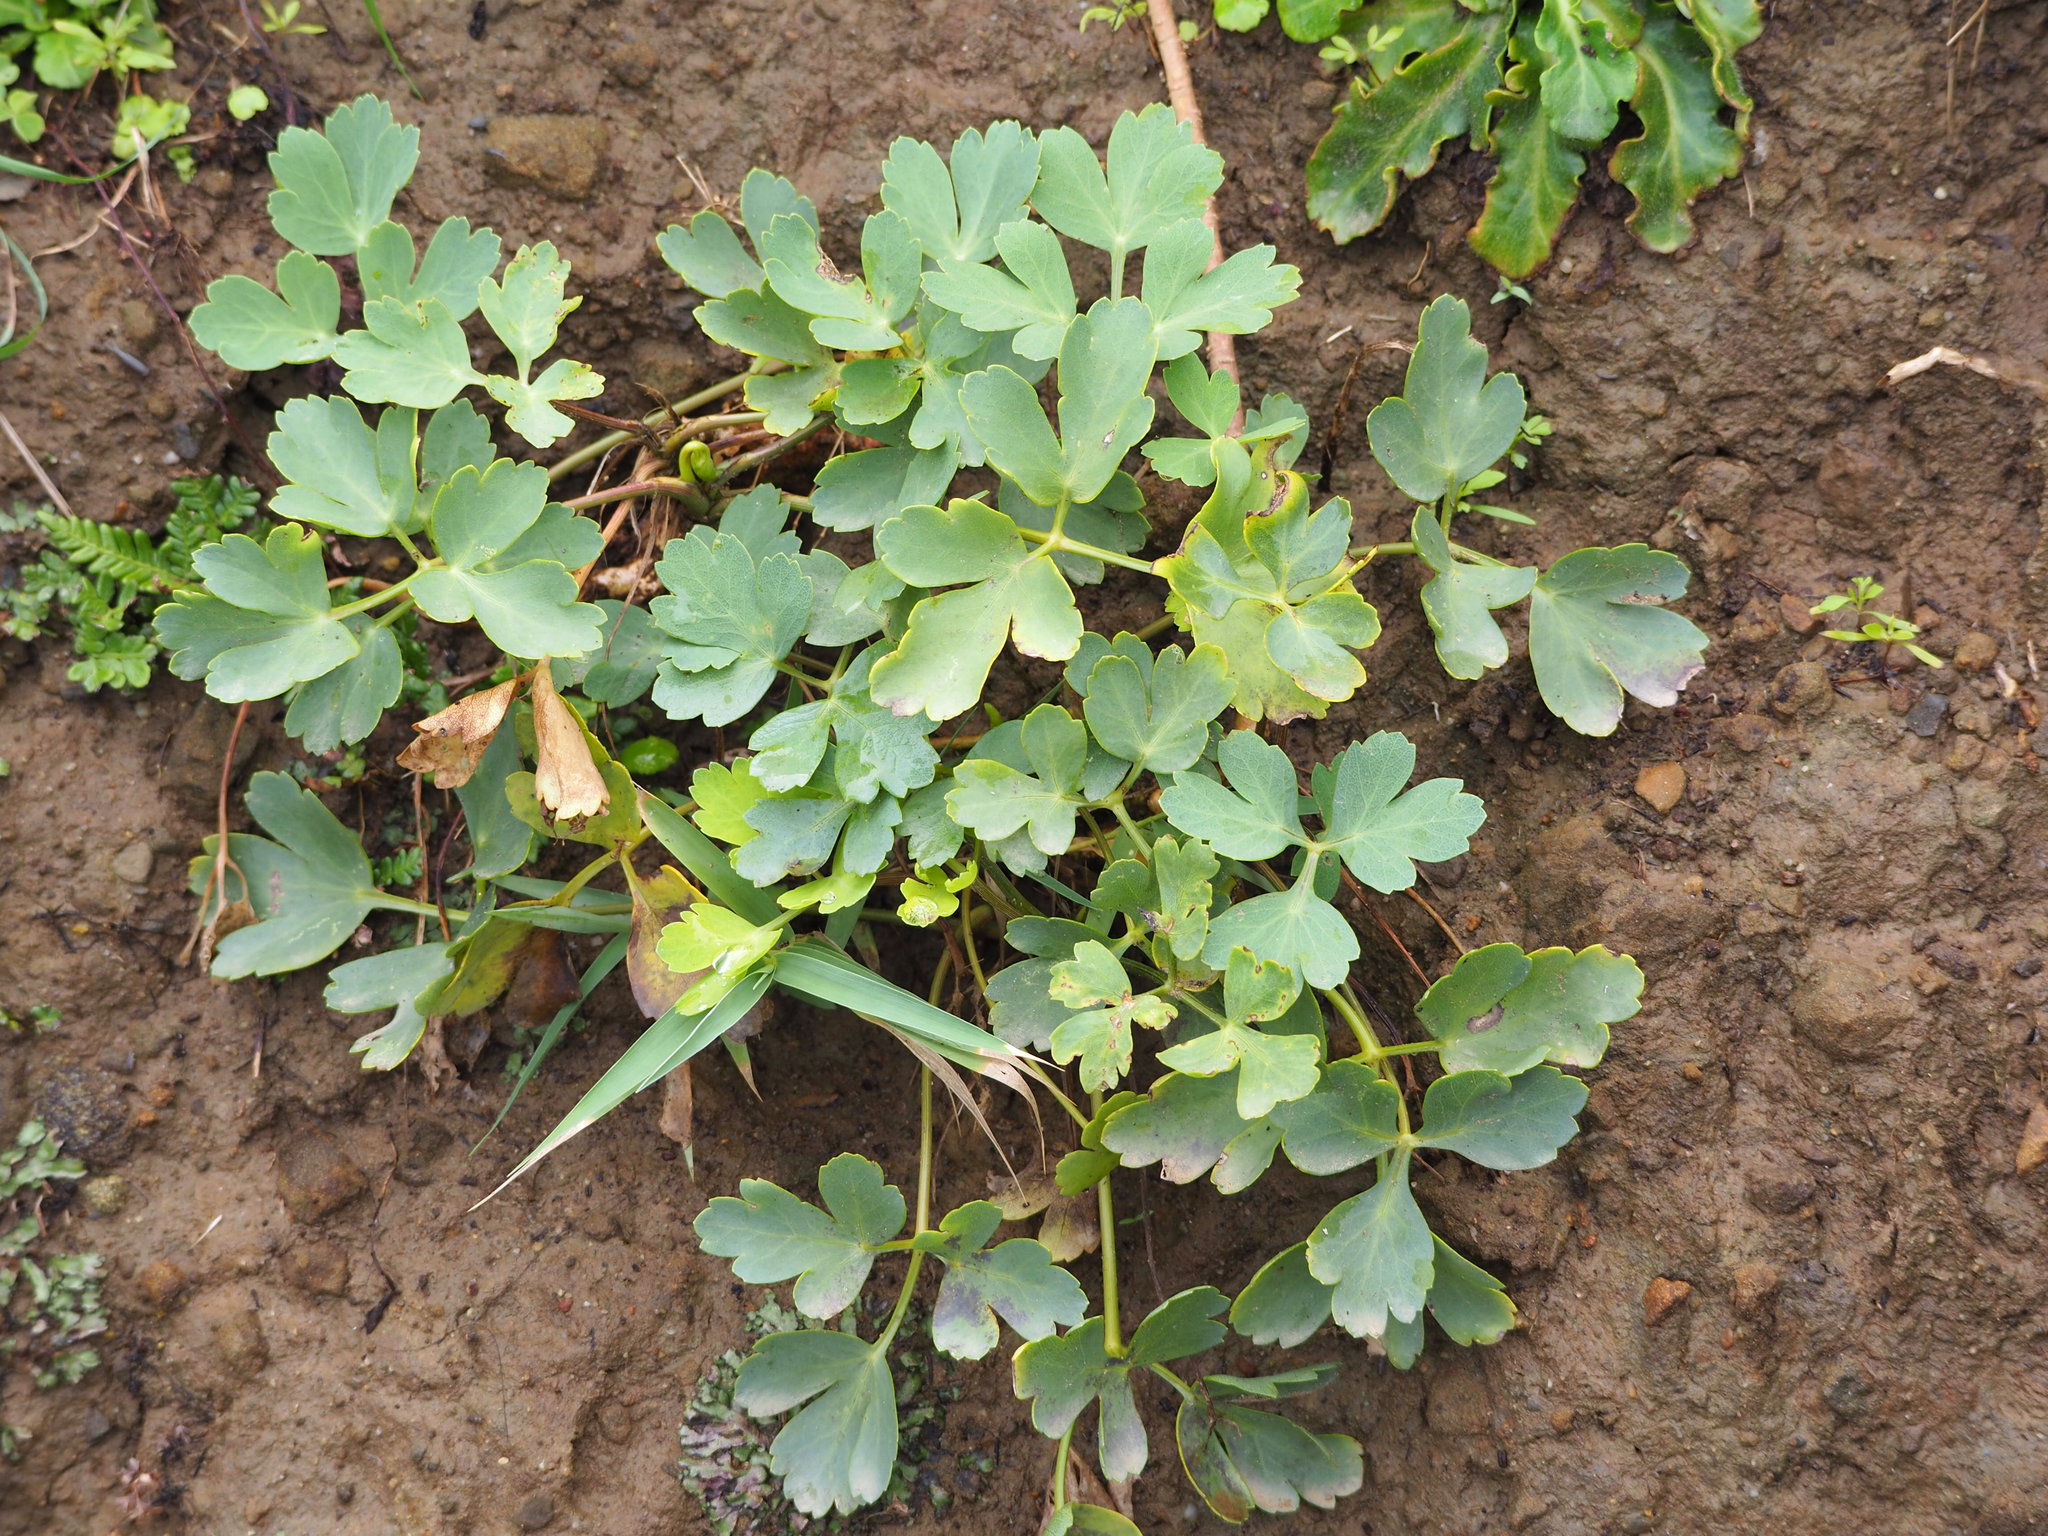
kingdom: Plantae
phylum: Tracheophyta
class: Magnoliopsida
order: Apiales
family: Apiaceae
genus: Peucedanum
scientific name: Peucedanum japonicum
